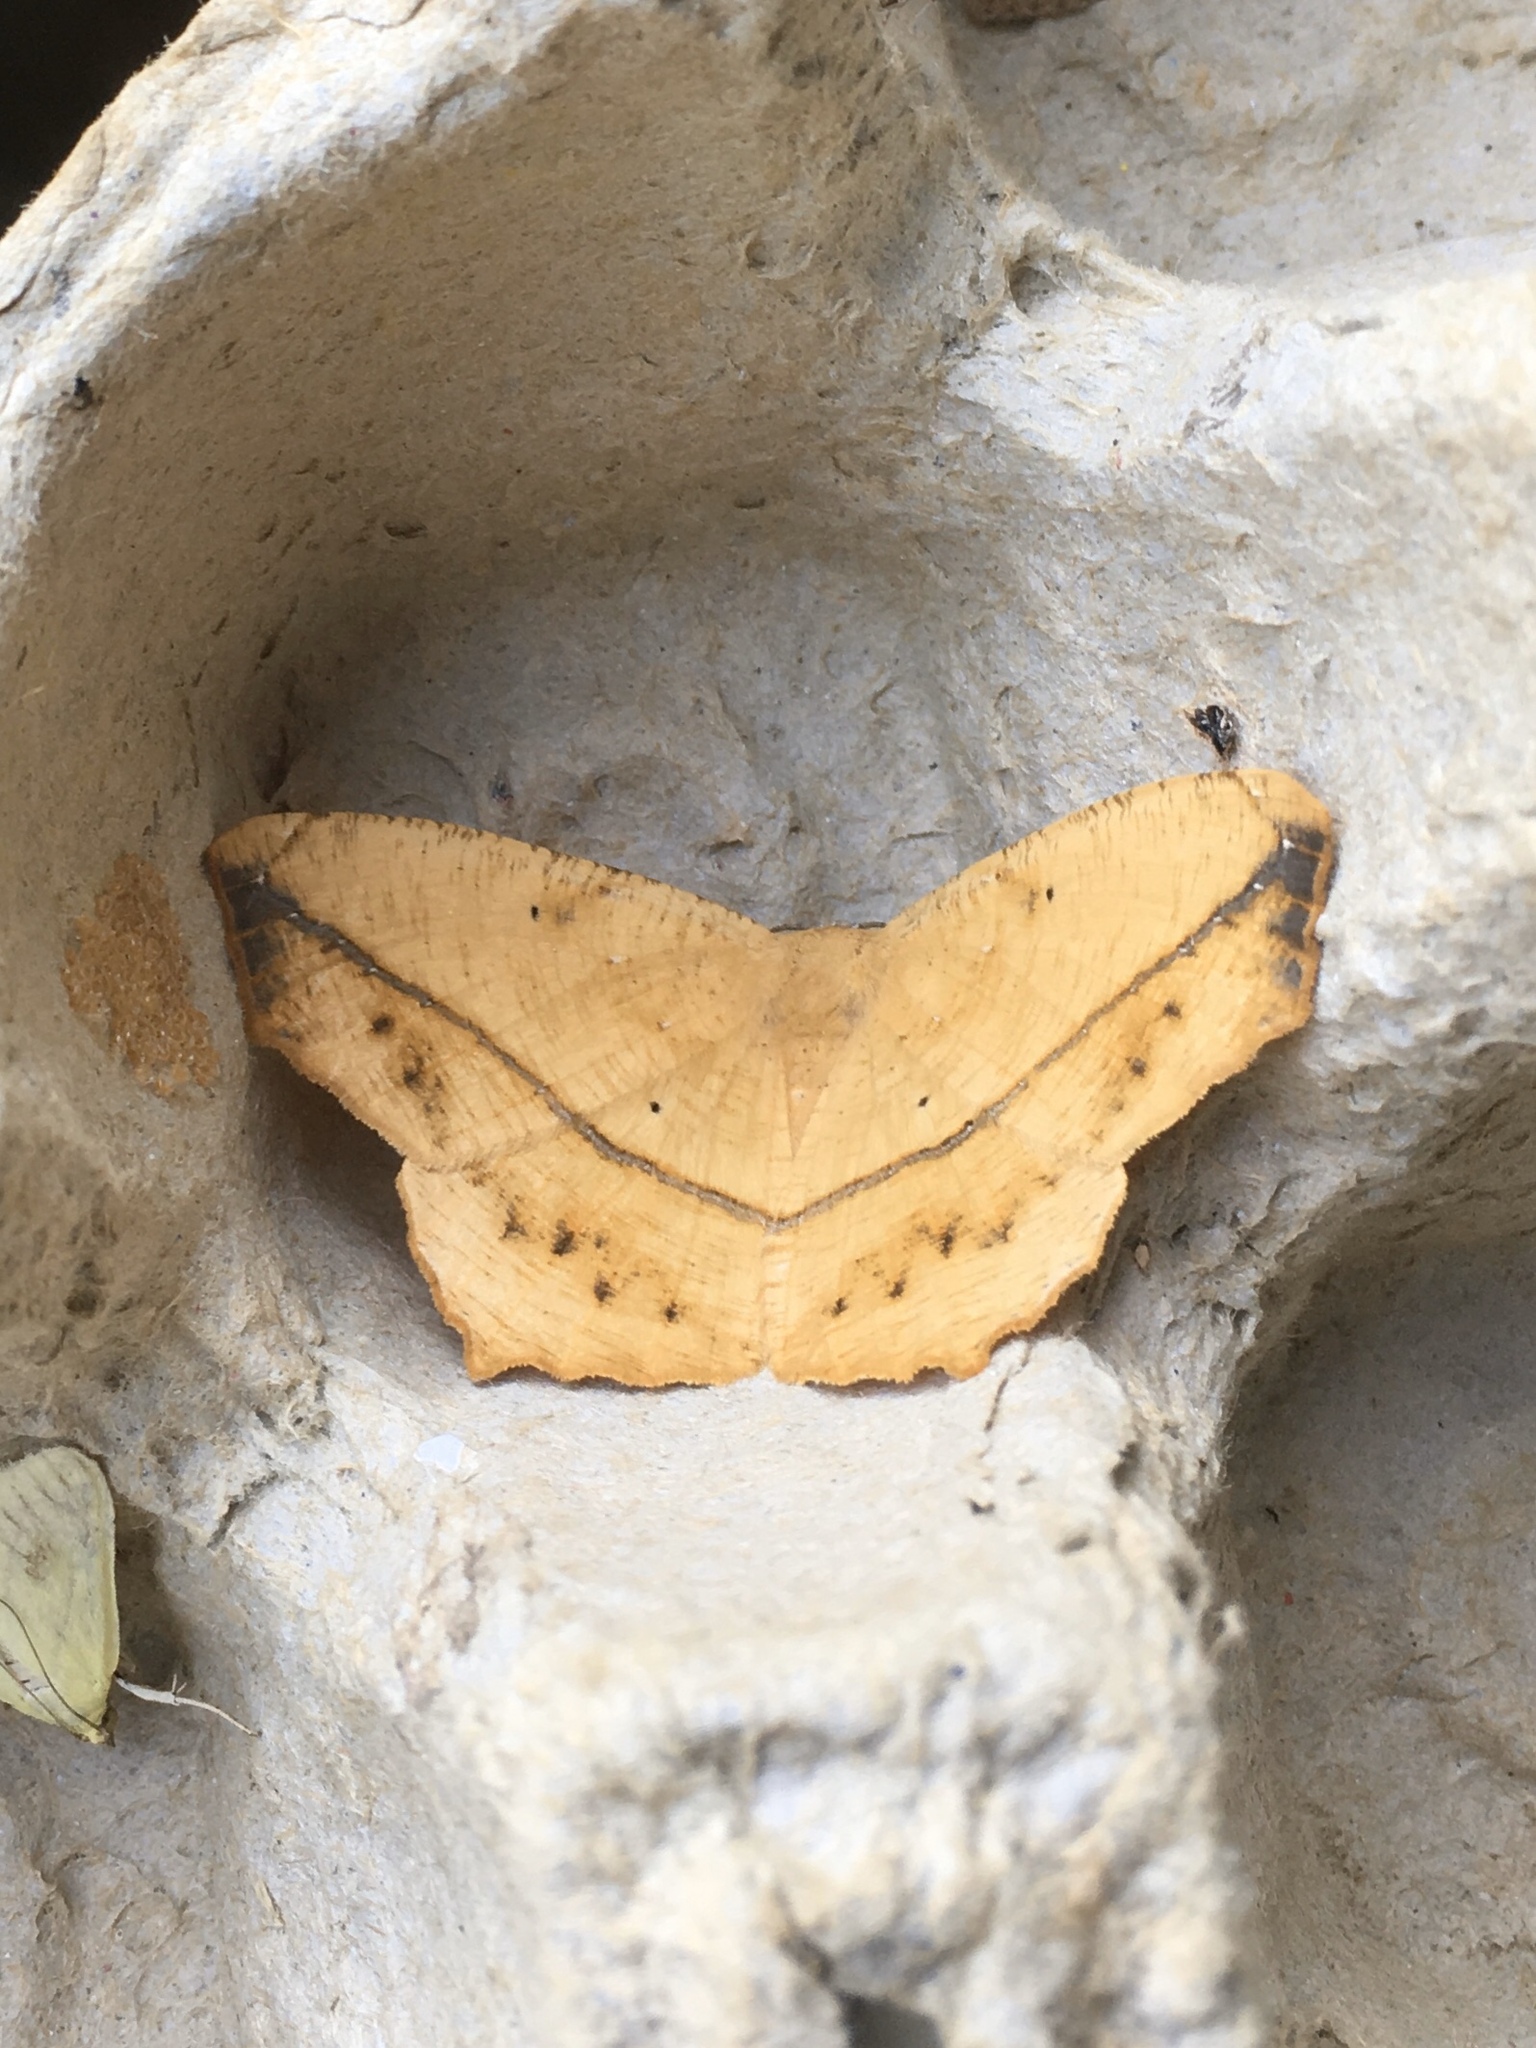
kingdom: Animalia
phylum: Arthropoda
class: Insecta
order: Lepidoptera
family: Geometridae
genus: Prochoerodes
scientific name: Prochoerodes lineola
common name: Large maple spanworm
